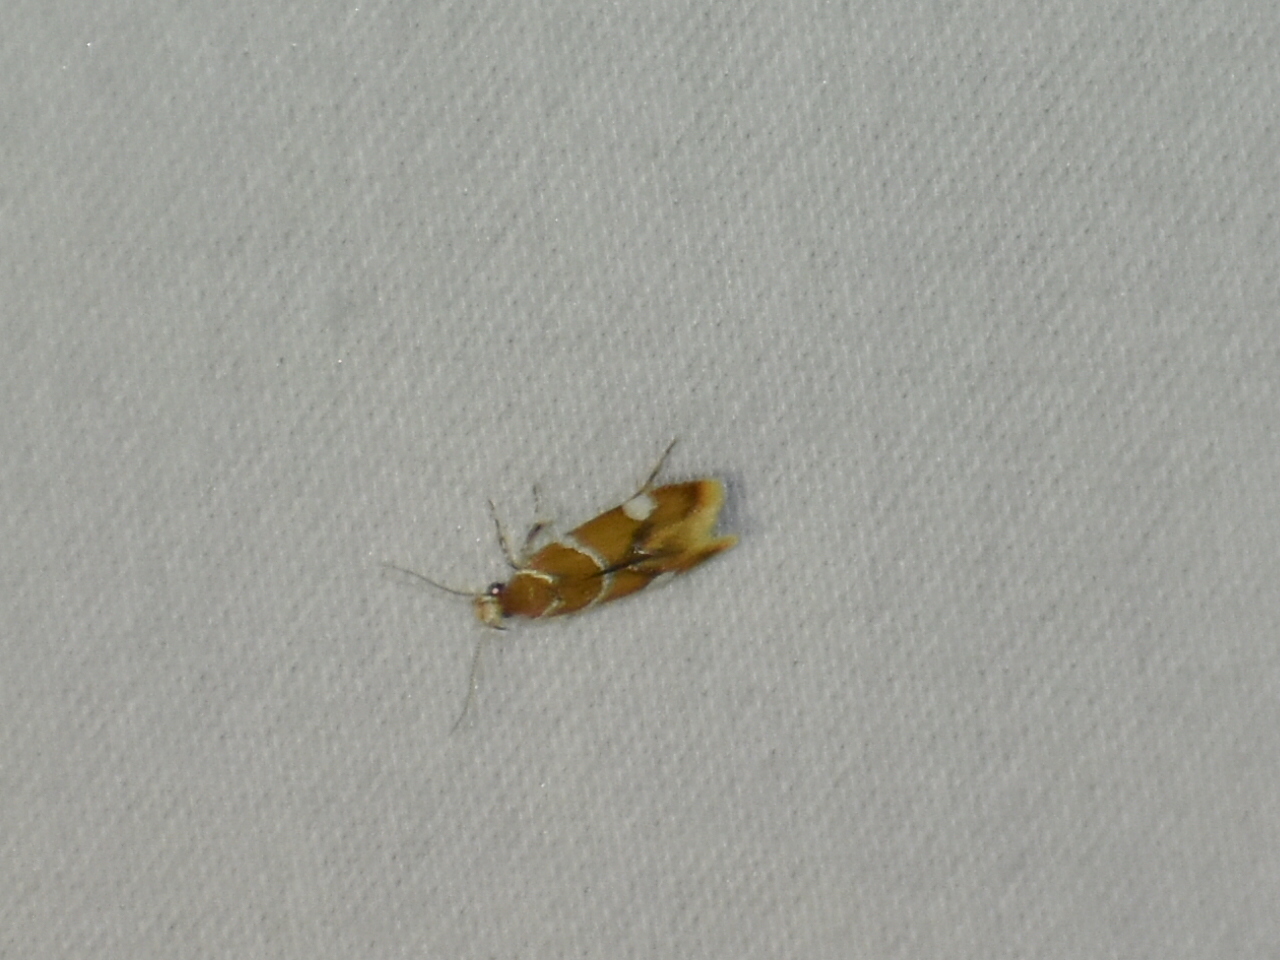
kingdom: Animalia
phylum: Arthropoda
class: Insecta
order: Lepidoptera
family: Oecophoridae
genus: Promalactis
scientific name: Promalactis suzukiella
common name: Moth
